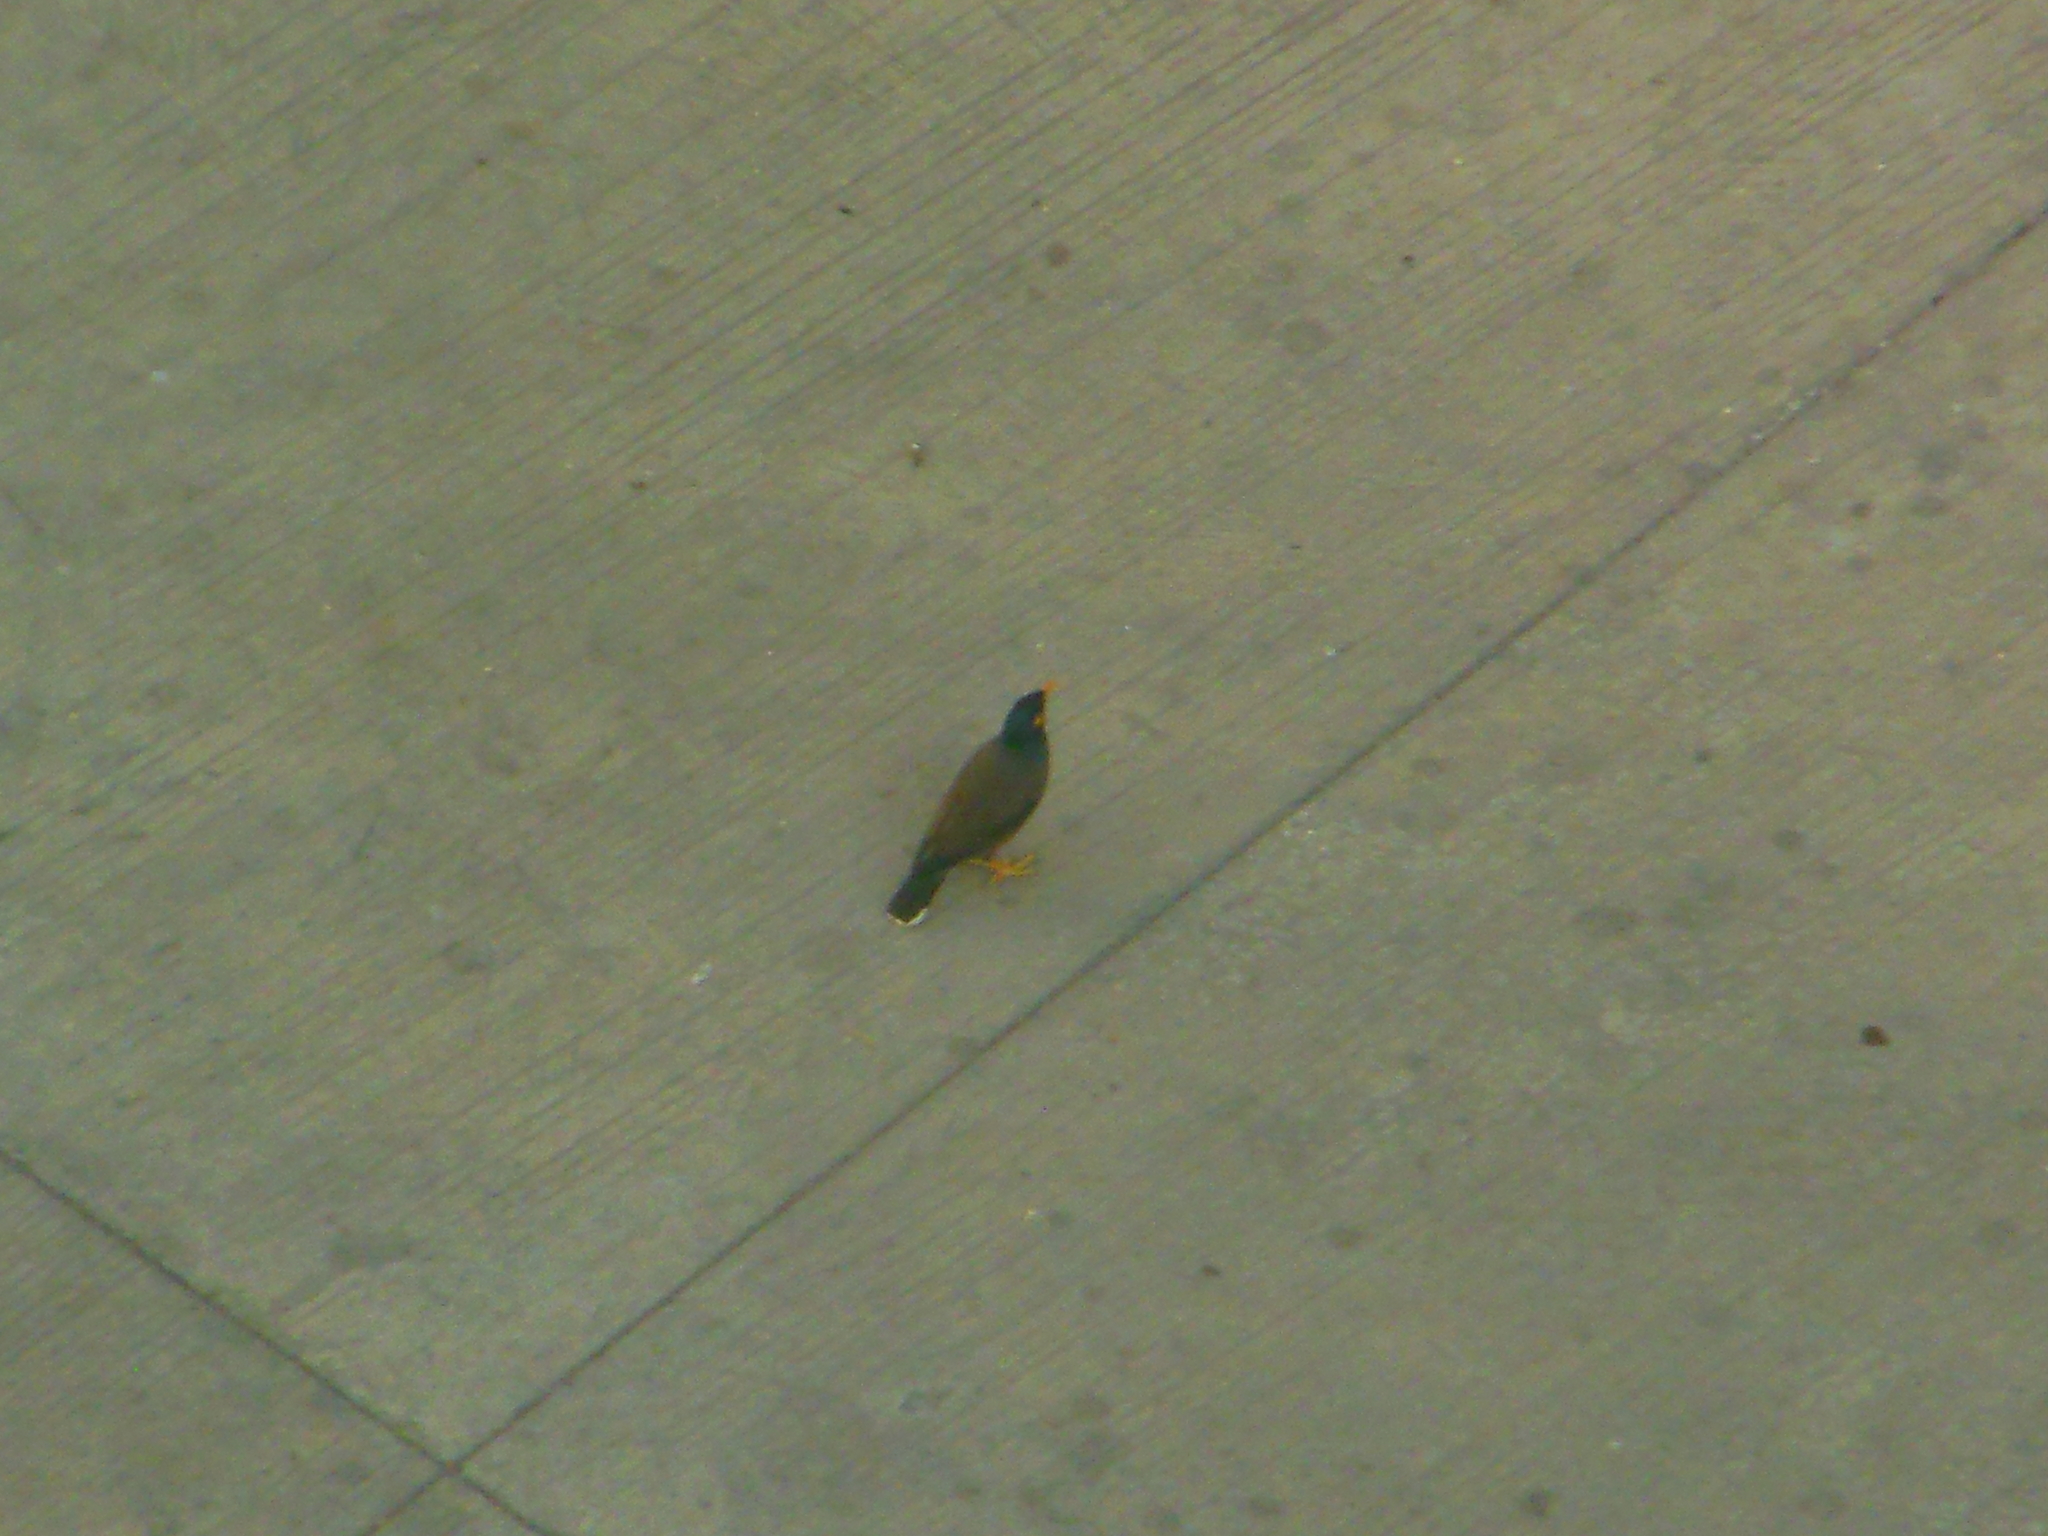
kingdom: Animalia
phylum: Chordata
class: Aves
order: Passeriformes
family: Sturnidae
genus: Acridotheres
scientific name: Acridotheres tristis
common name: Common myna
